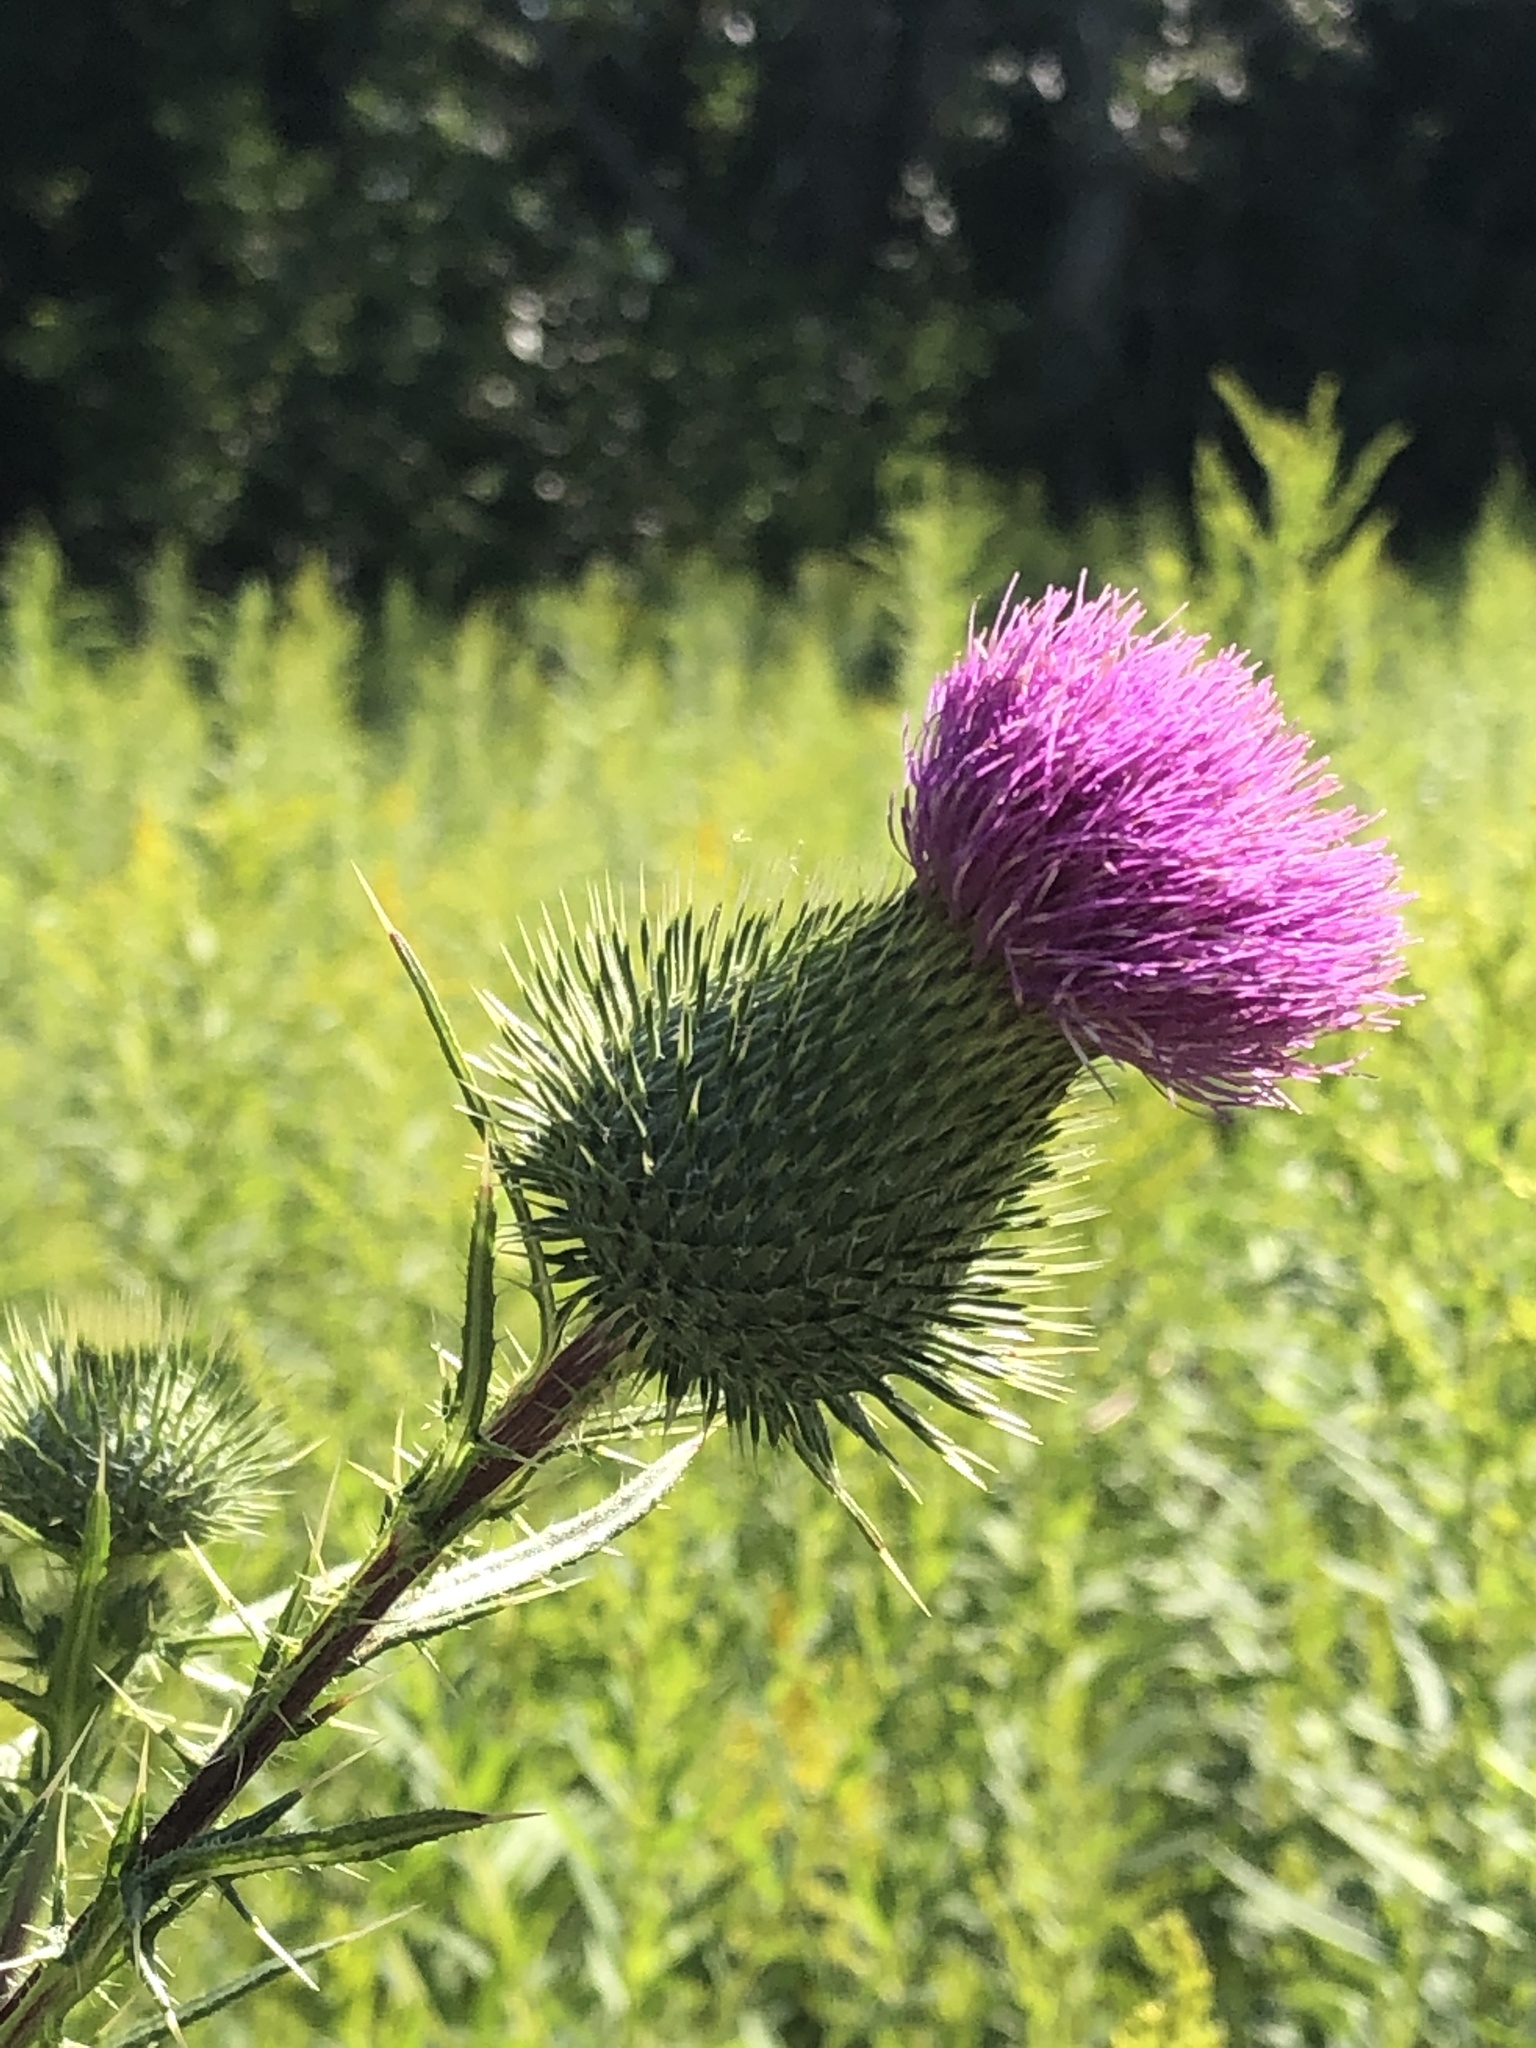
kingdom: Plantae
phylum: Tracheophyta
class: Magnoliopsida
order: Asterales
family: Asteraceae
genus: Cirsium
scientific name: Cirsium vulgare
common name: Bull thistle
